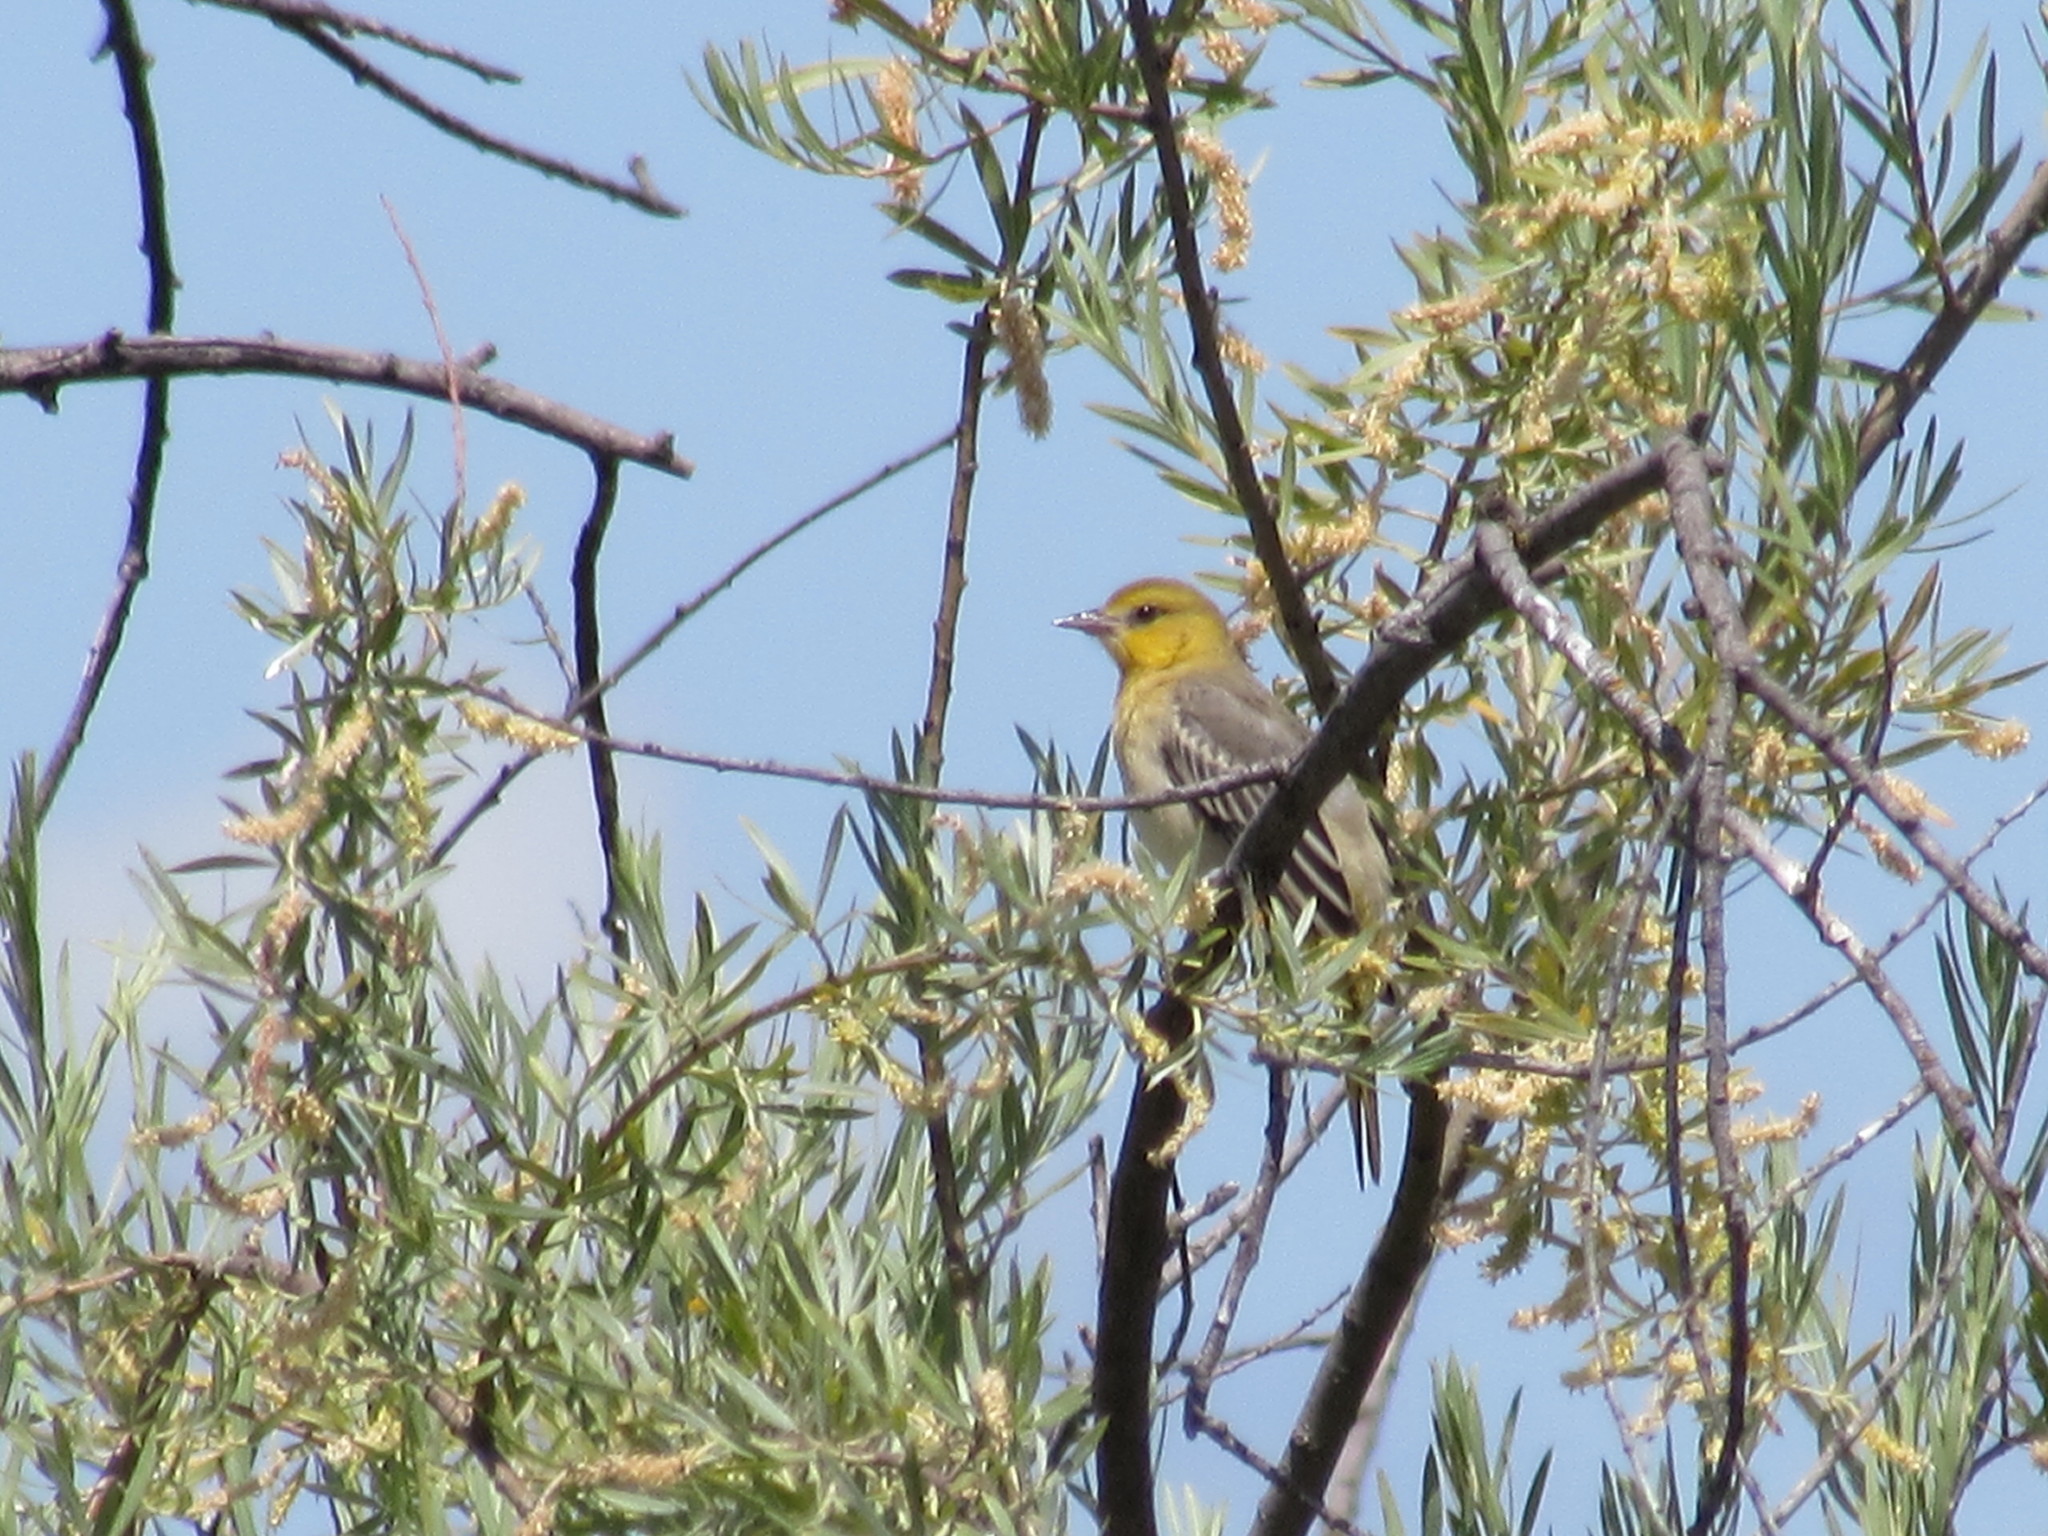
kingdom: Animalia
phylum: Chordata
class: Aves
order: Passeriformes
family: Icteridae
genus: Icterus
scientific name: Icterus bullockii
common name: Bullock's oriole
